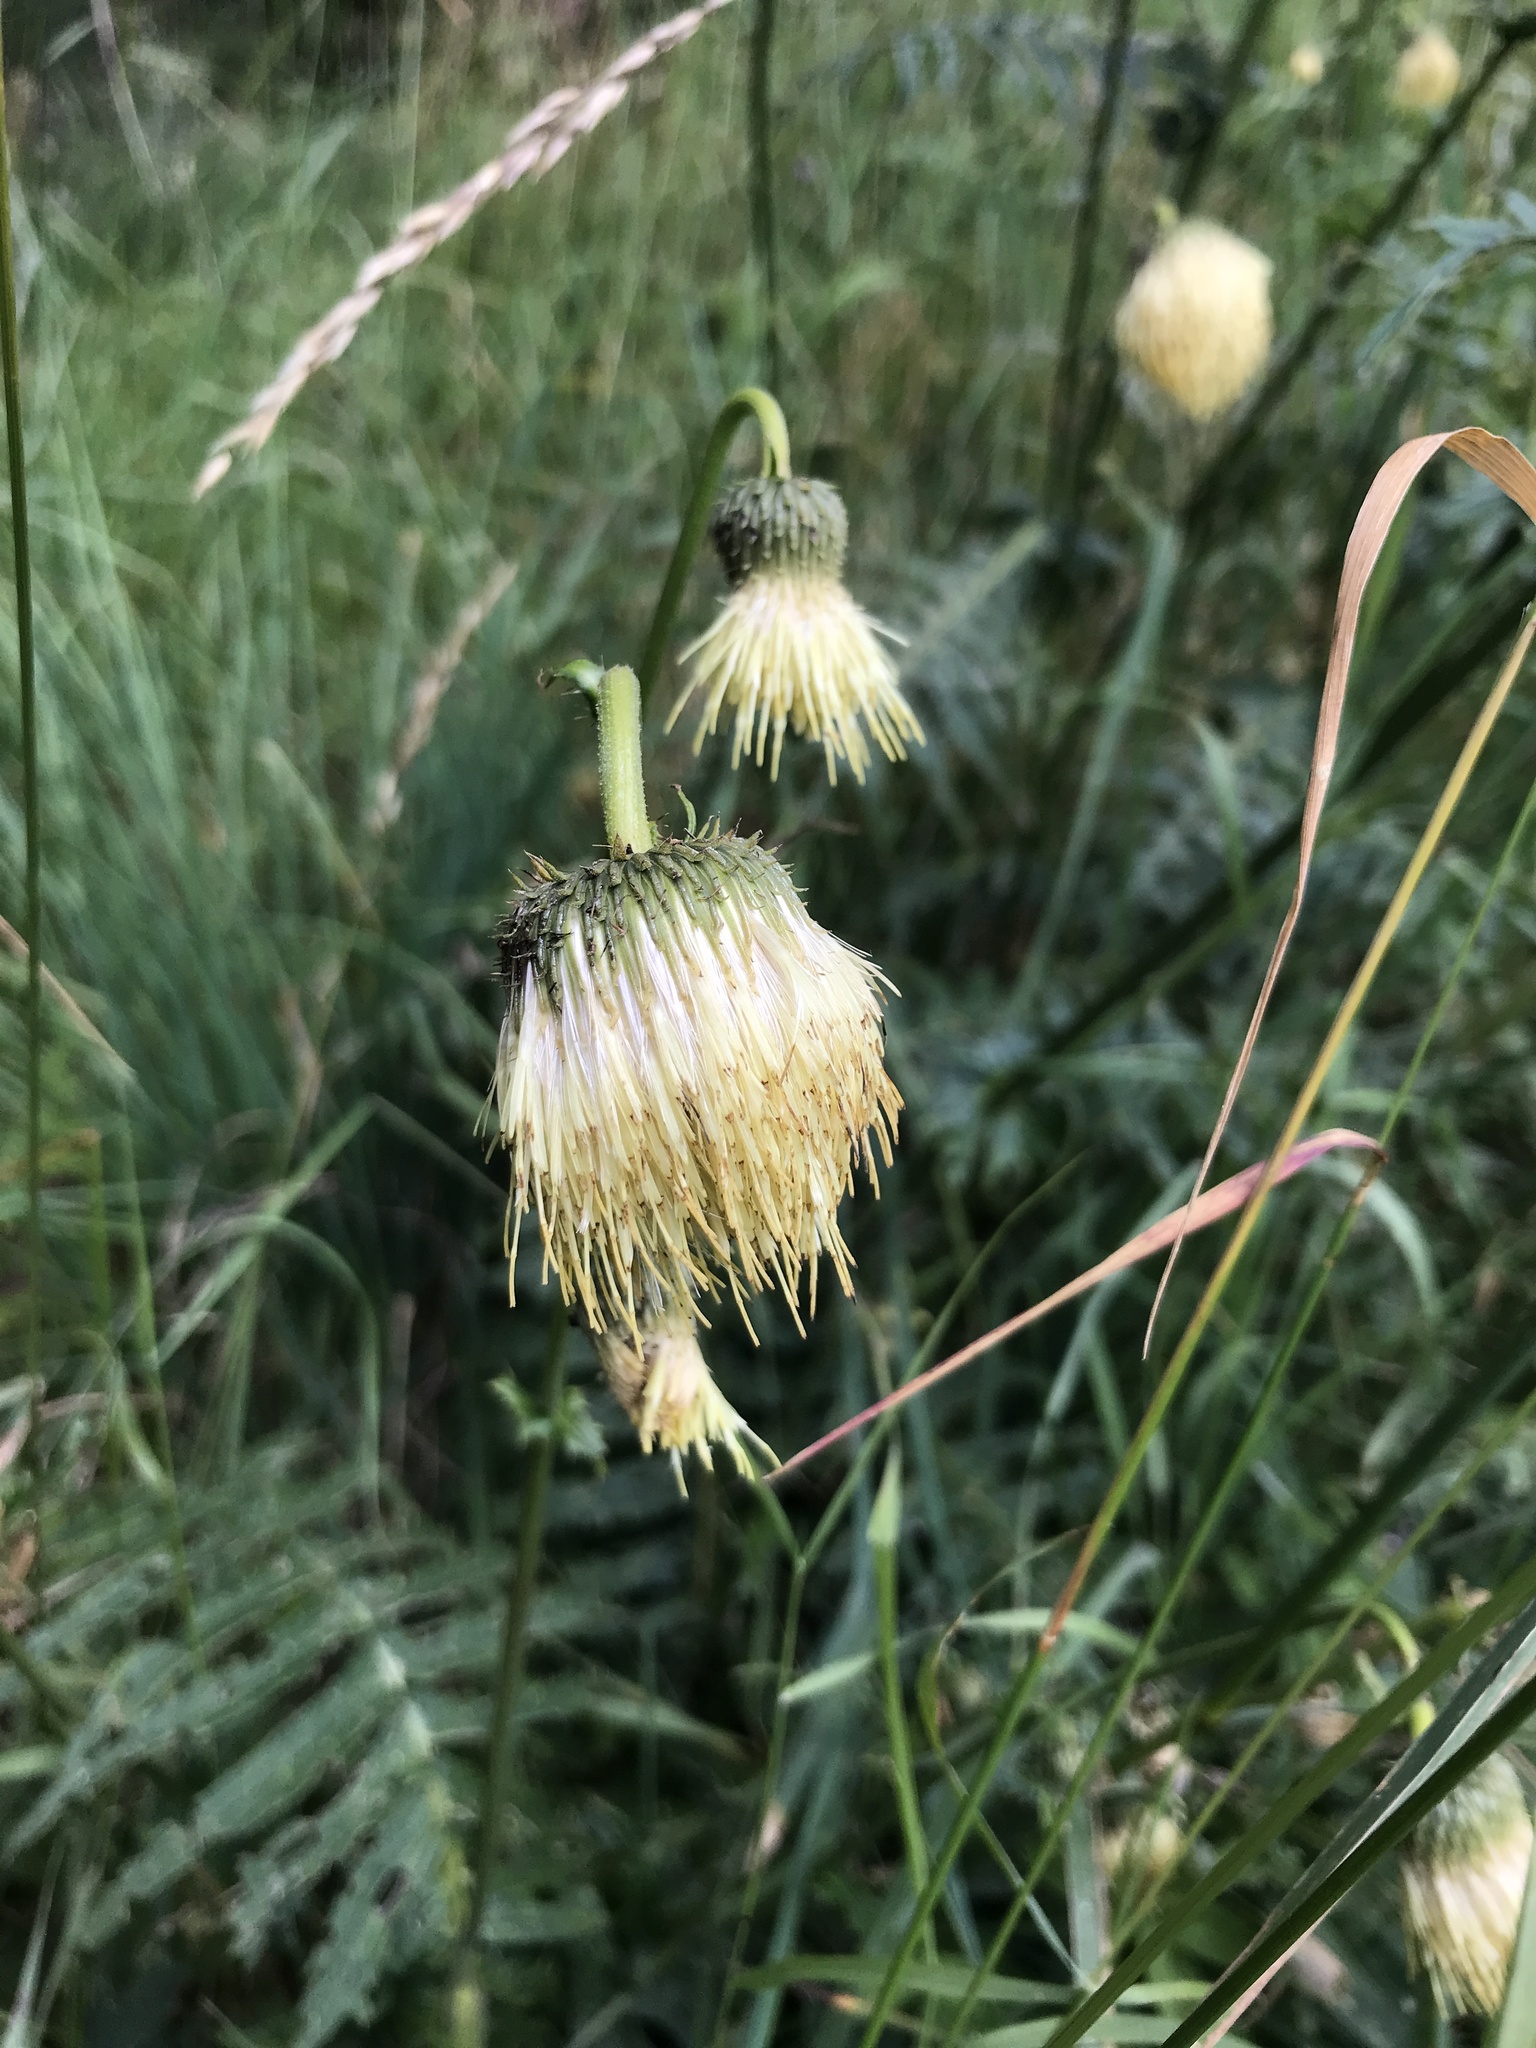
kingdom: Plantae
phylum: Tracheophyta
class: Magnoliopsida
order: Asterales
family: Asteraceae
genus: Cirsium
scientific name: Cirsium erisithales
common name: Yellow thistle
